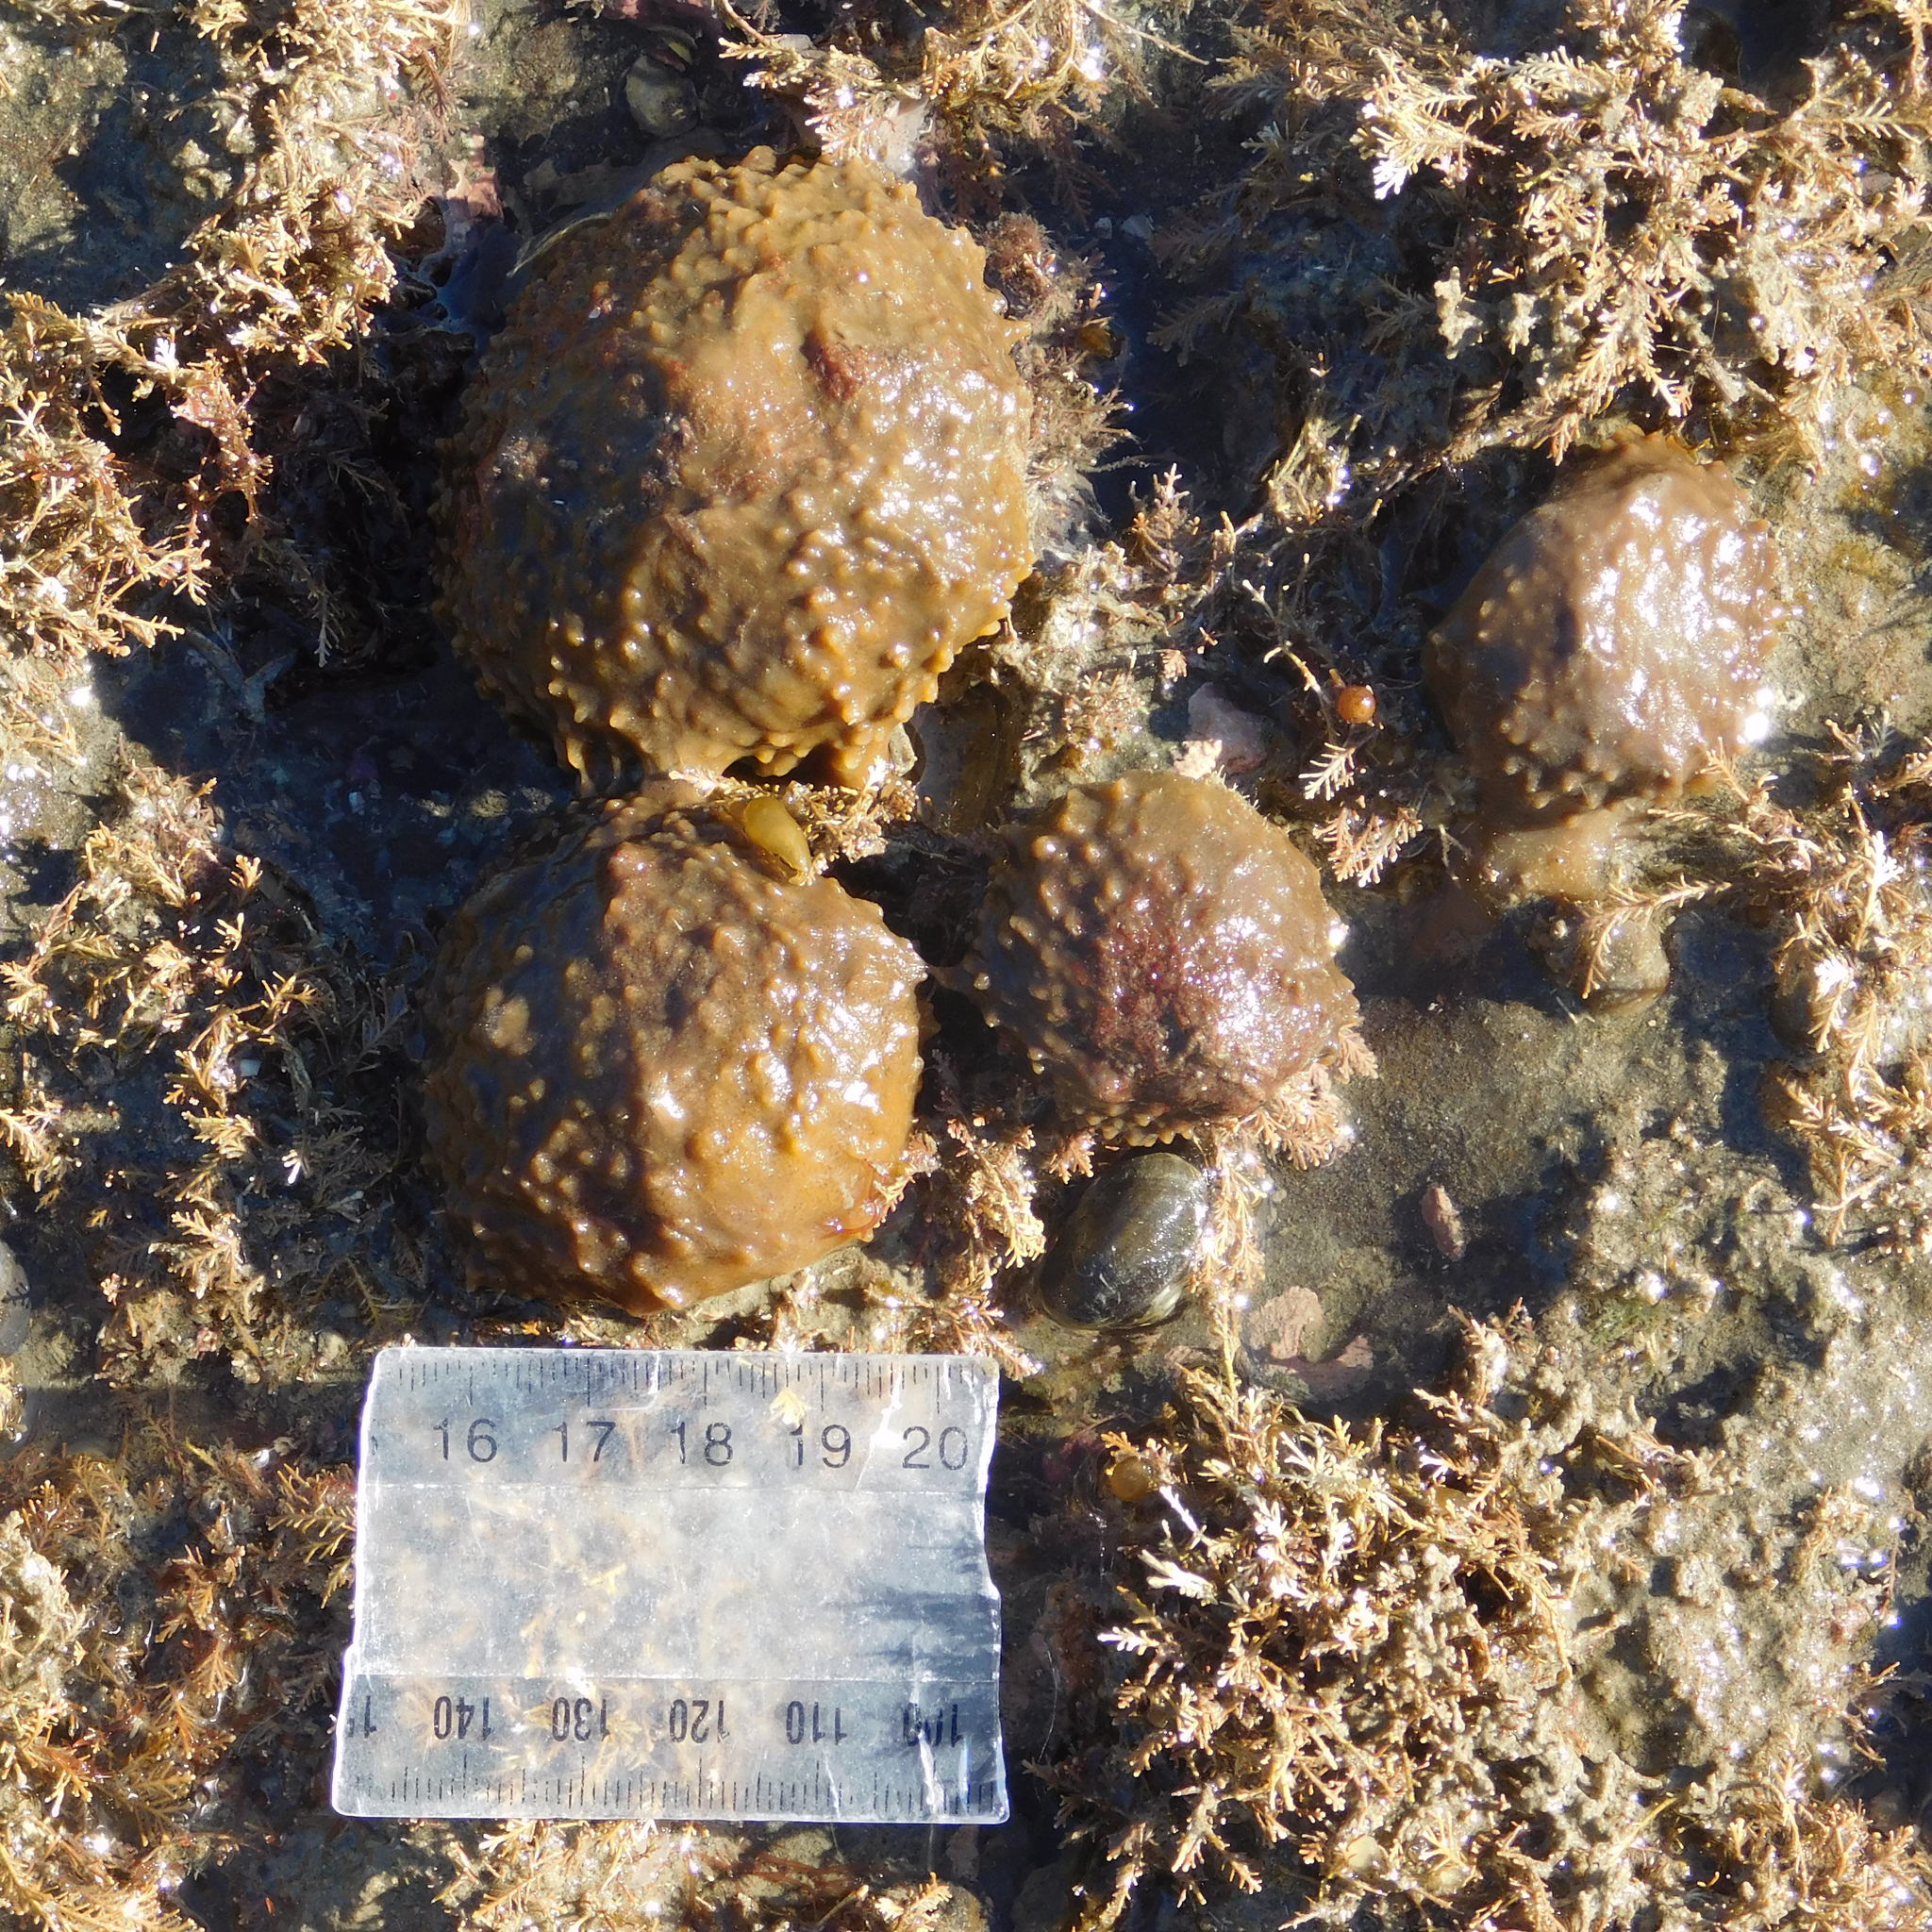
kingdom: Animalia
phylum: Porifera
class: Demospongiae
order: Suberitida
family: Suberitidae
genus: Aaptos
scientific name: Aaptos tenta
